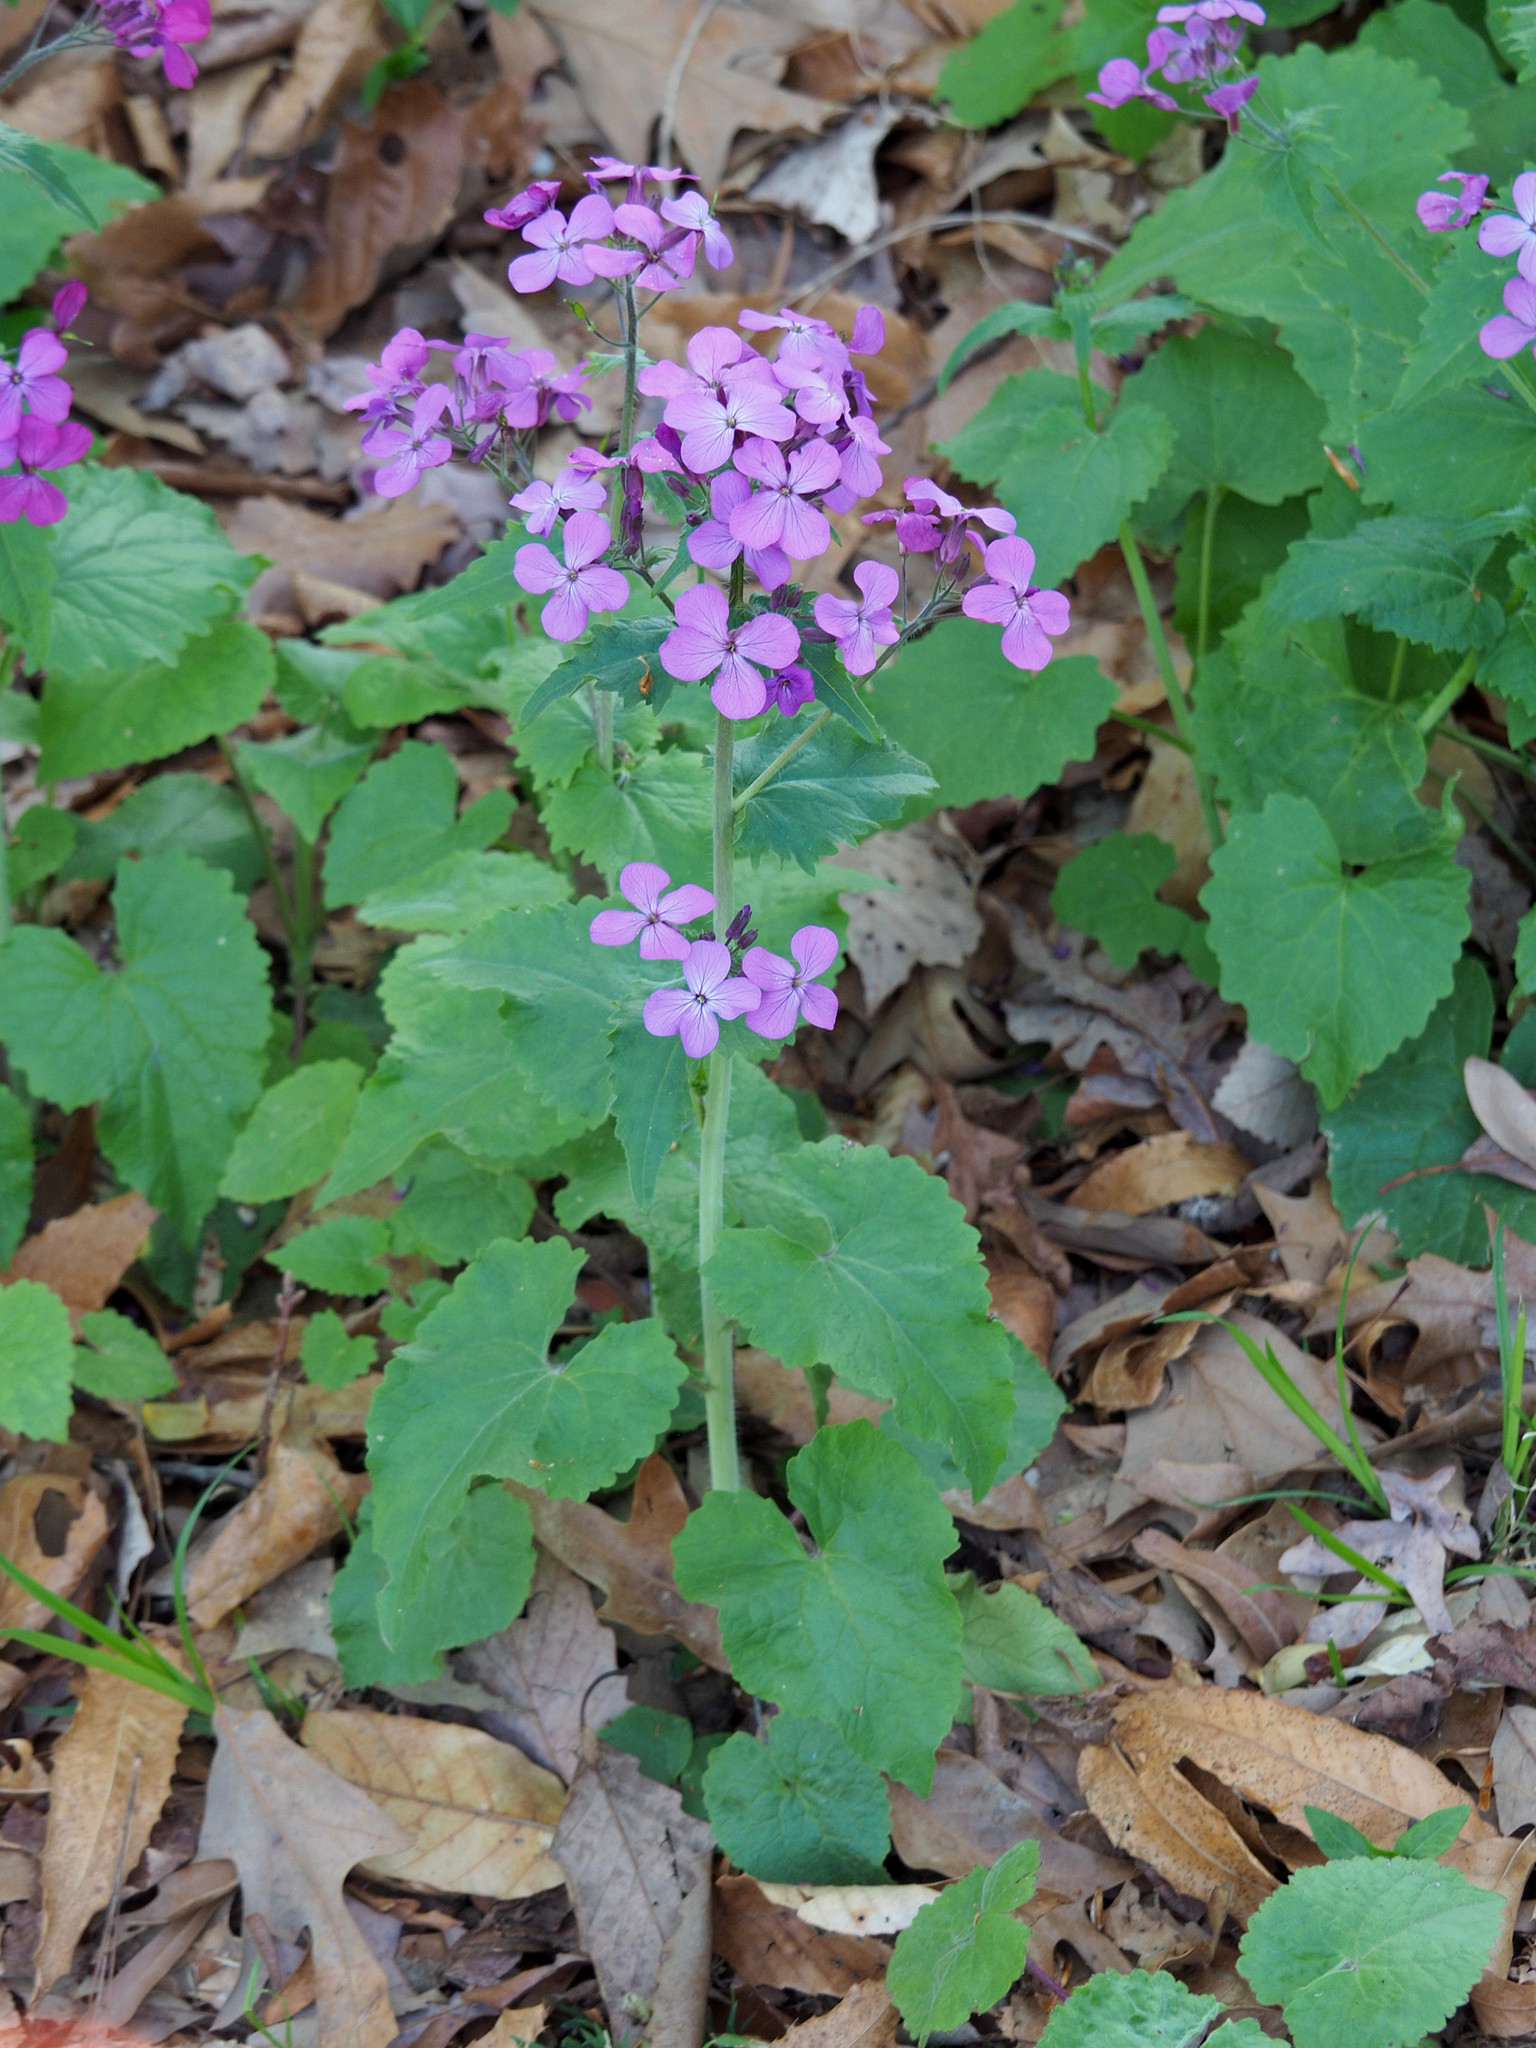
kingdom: Plantae
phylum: Tracheophyta
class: Magnoliopsida
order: Brassicales
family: Brassicaceae
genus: Lunaria
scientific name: Lunaria annua
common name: Honesty
